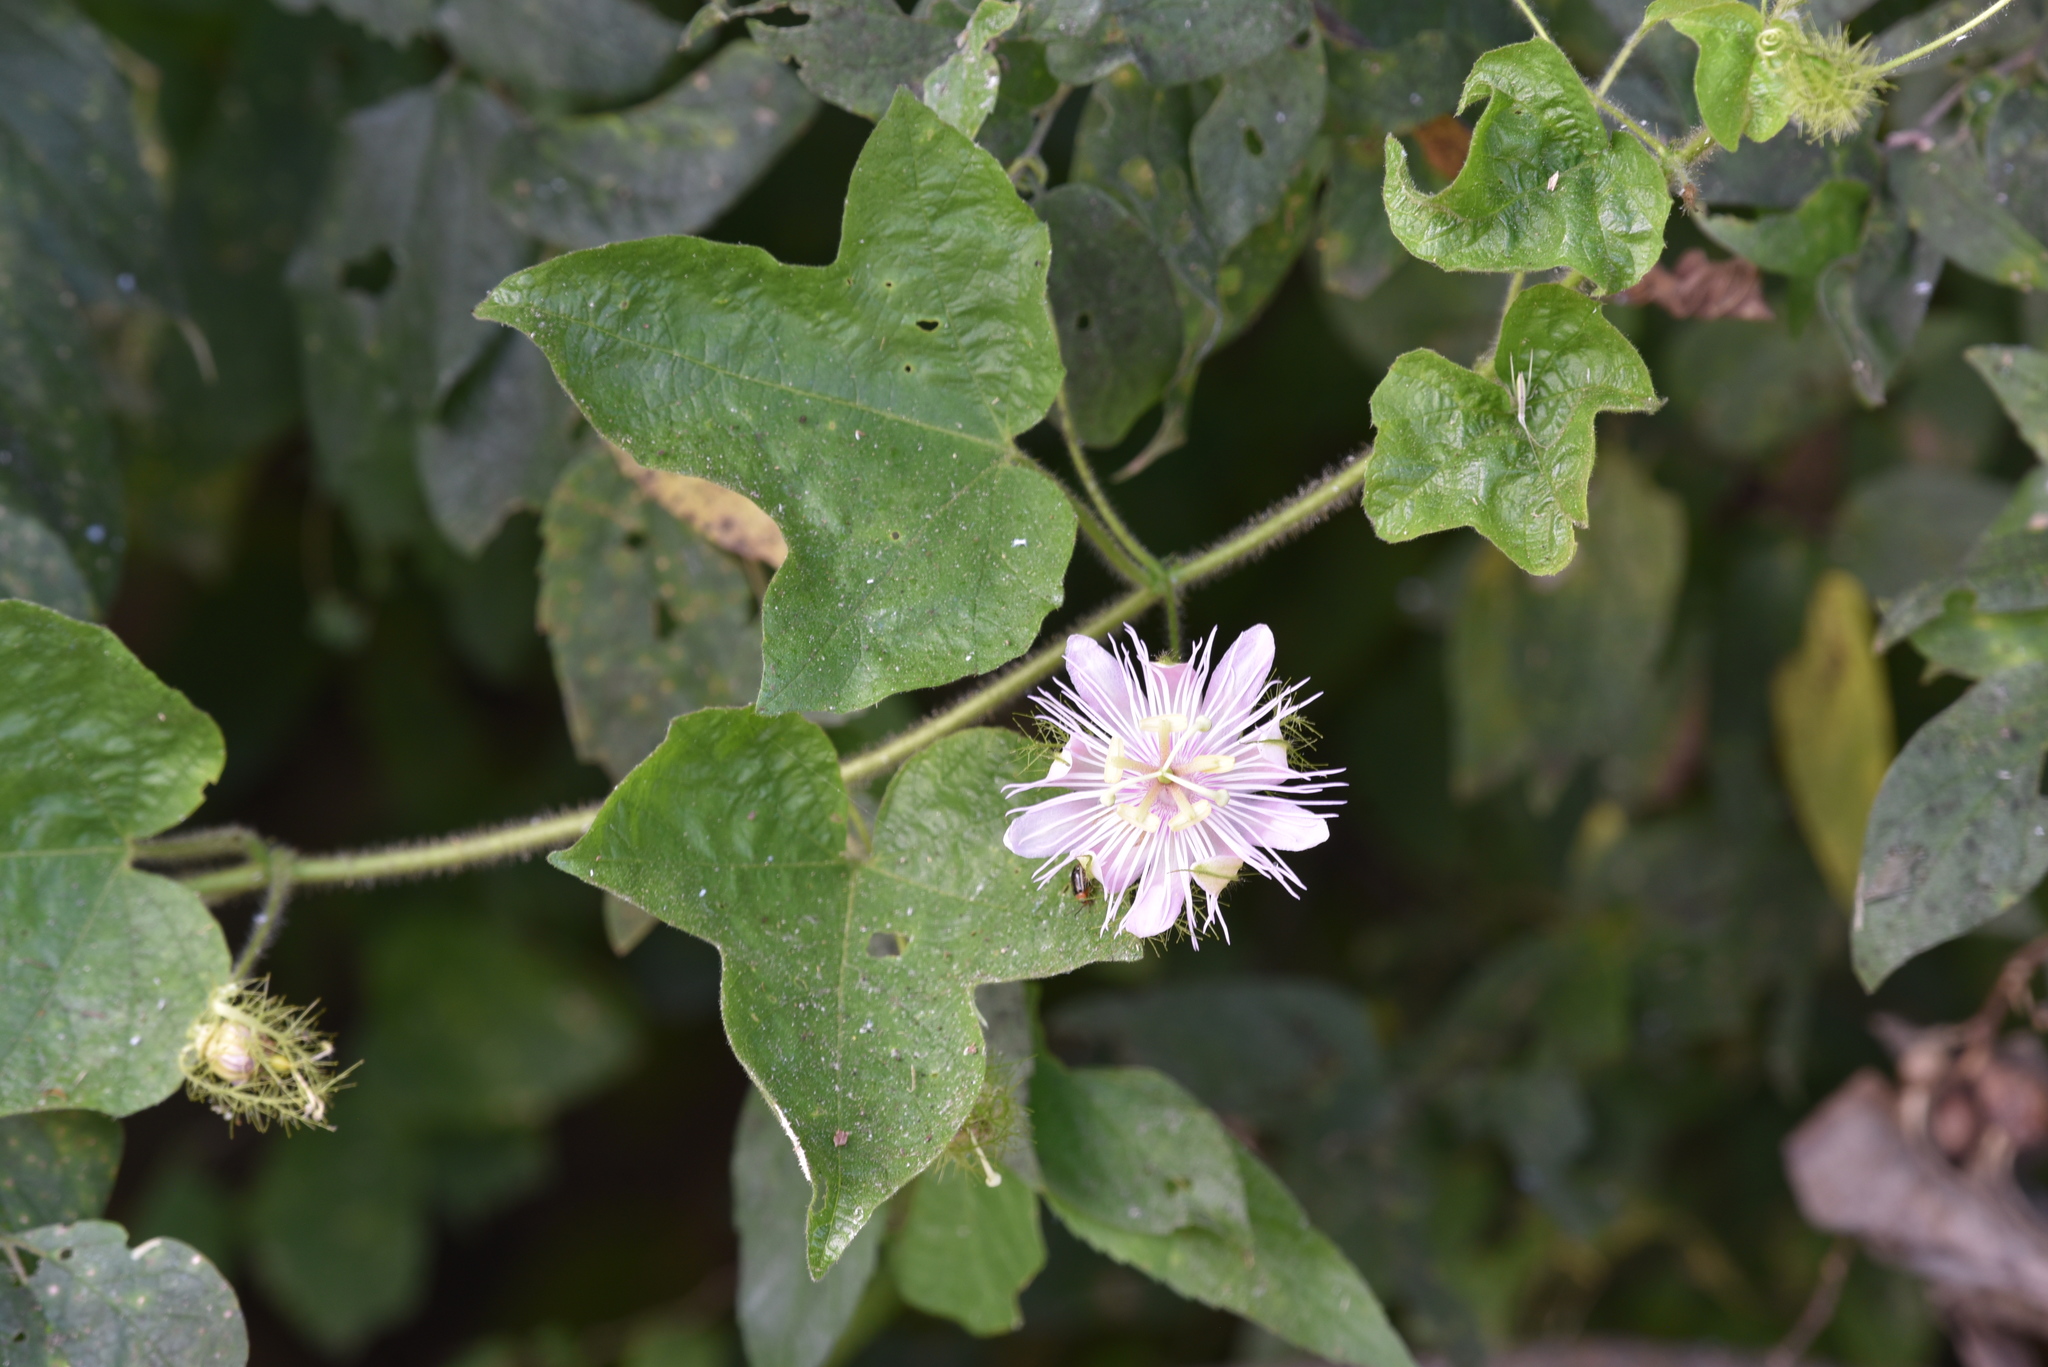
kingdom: Plantae
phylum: Tracheophyta
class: Magnoliopsida
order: Malpighiales
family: Passifloraceae
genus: Passiflora
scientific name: Passiflora
